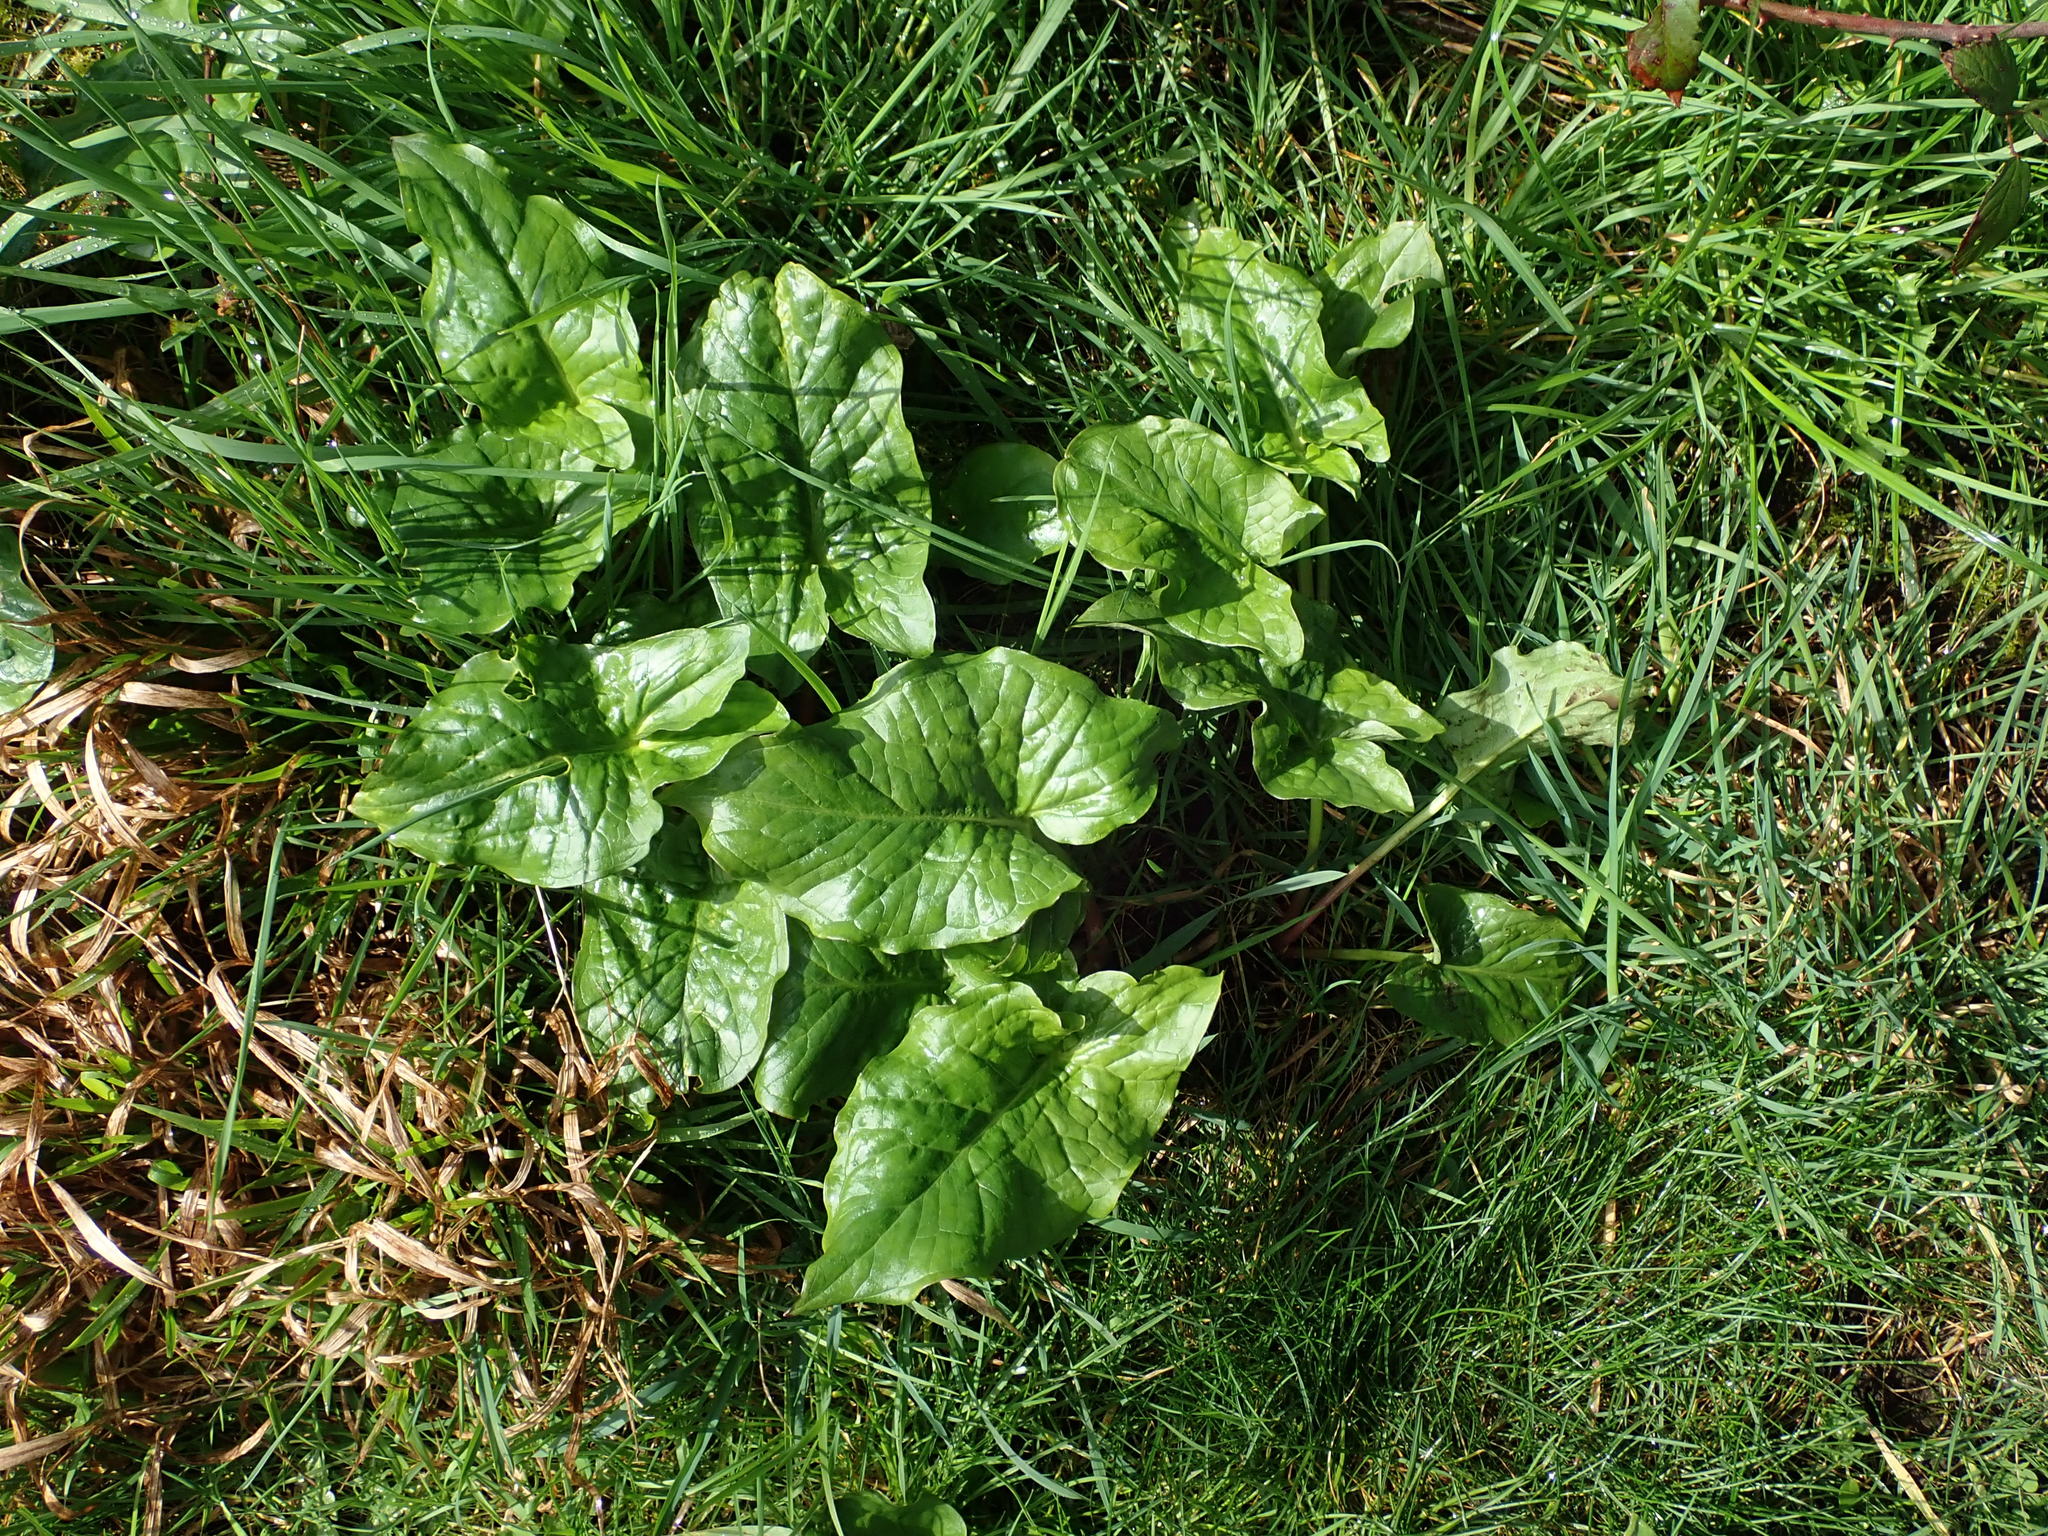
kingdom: Plantae
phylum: Tracheophyta
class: Liliopsida
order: Alismatales
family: Araceae
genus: Arum
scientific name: Arum maculatum
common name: Lords-and-ladies
